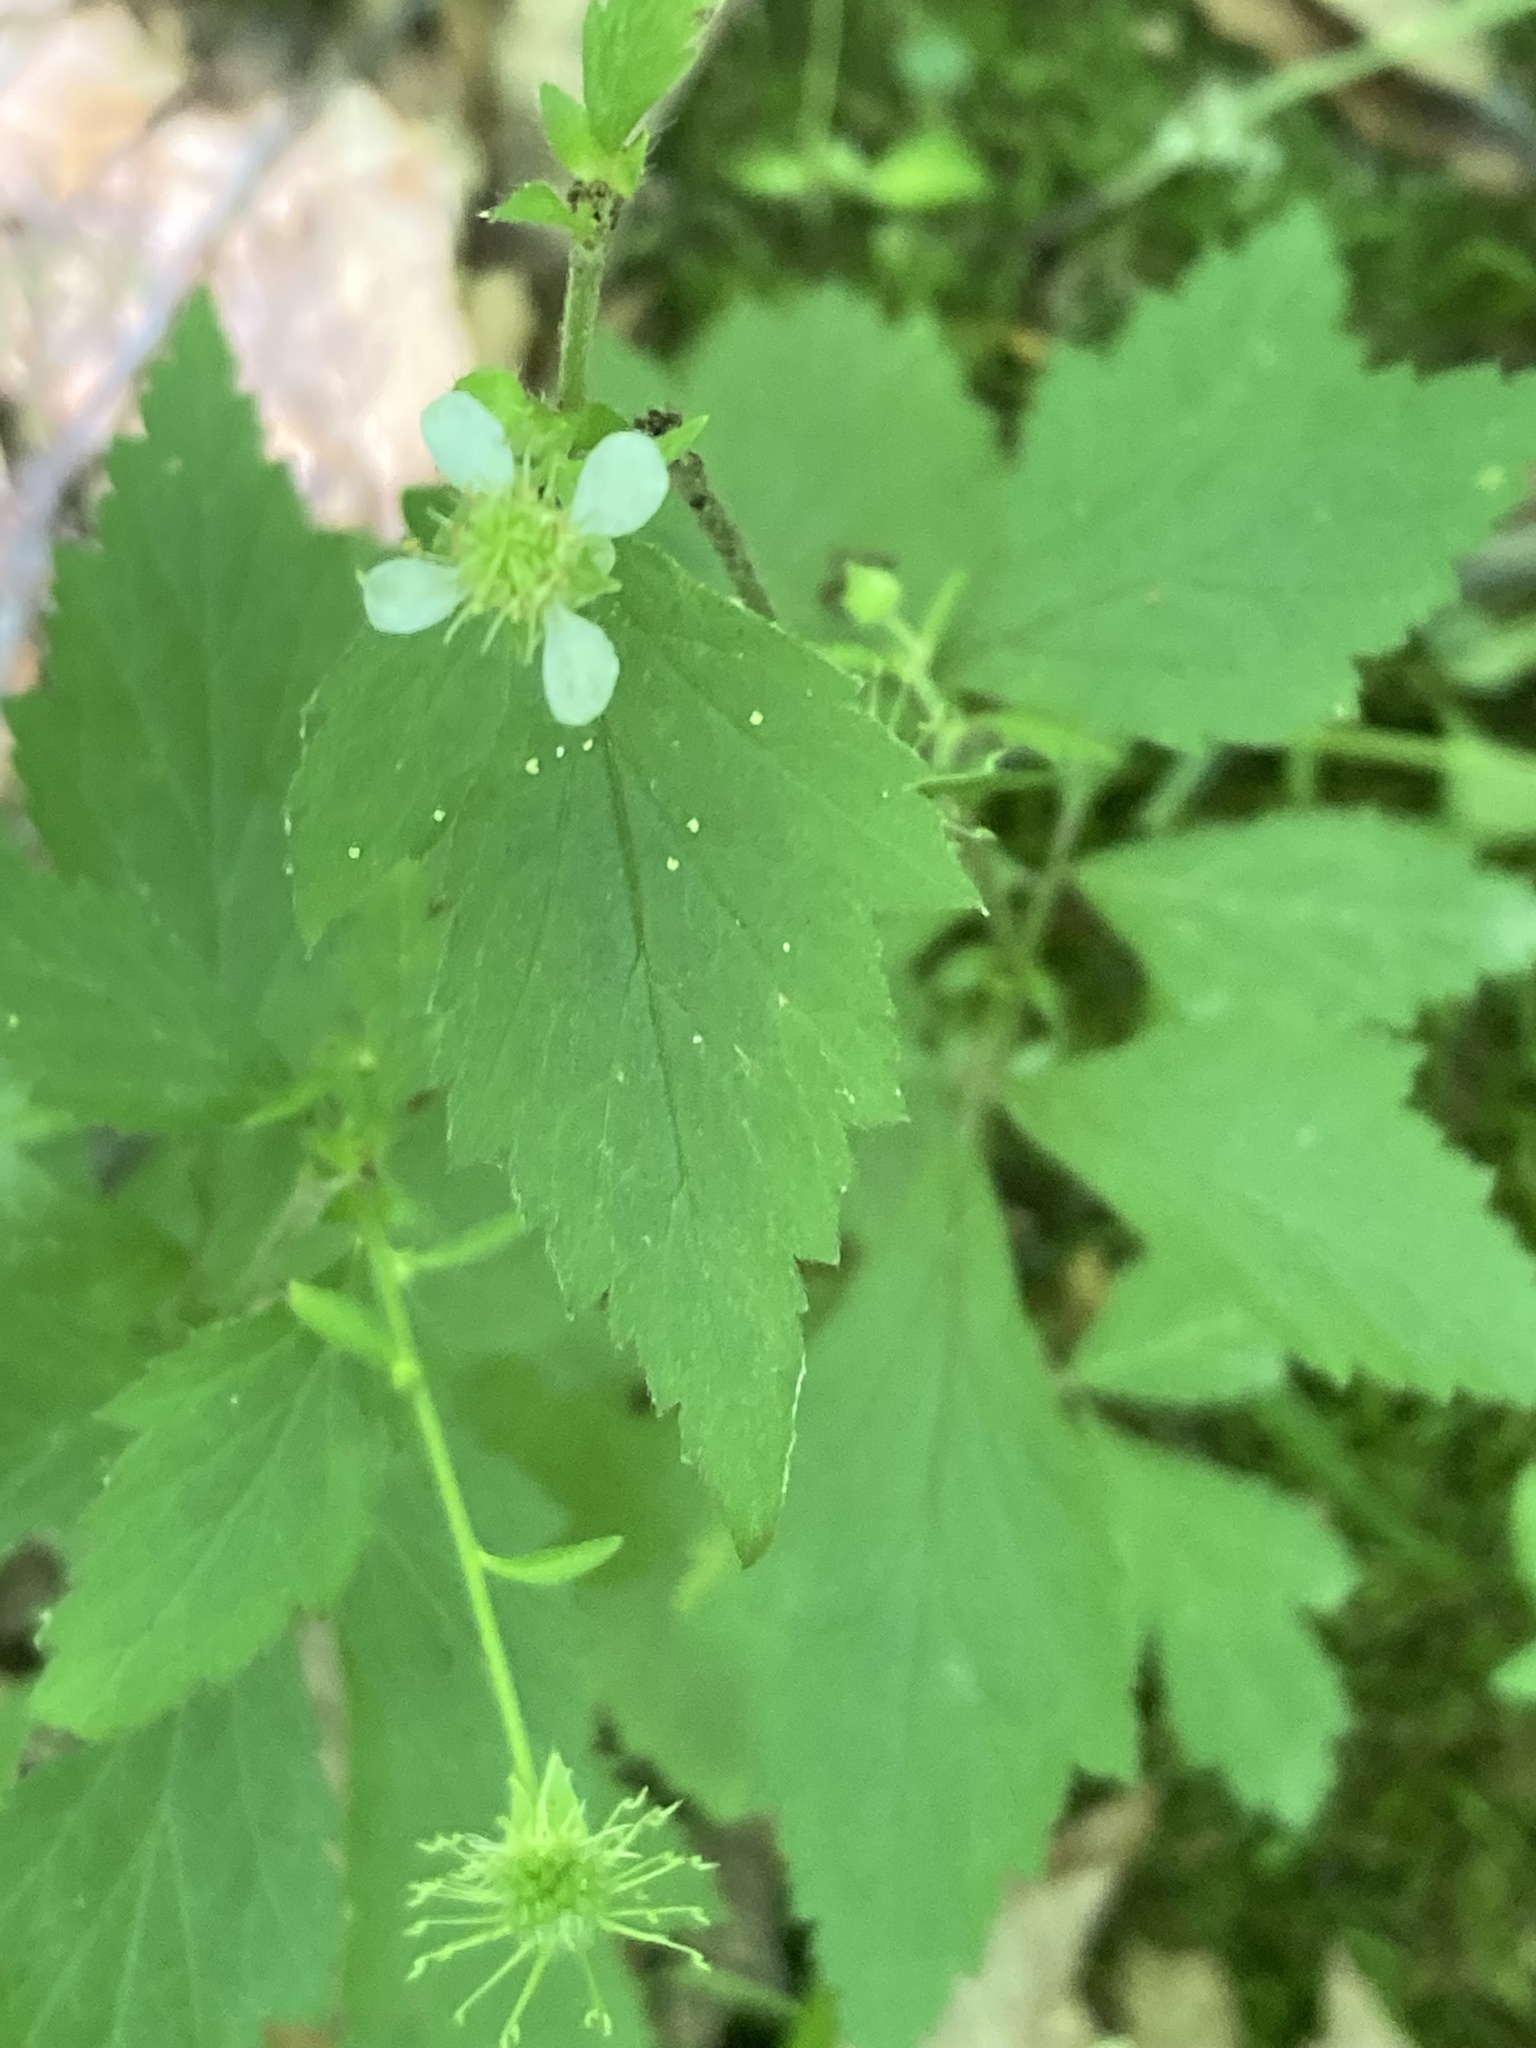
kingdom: Plantae
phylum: Tracheophyta
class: Magnoliopsida
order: Rosales
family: Rosaceae
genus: Geum
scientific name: Geum canadense
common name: White avens
